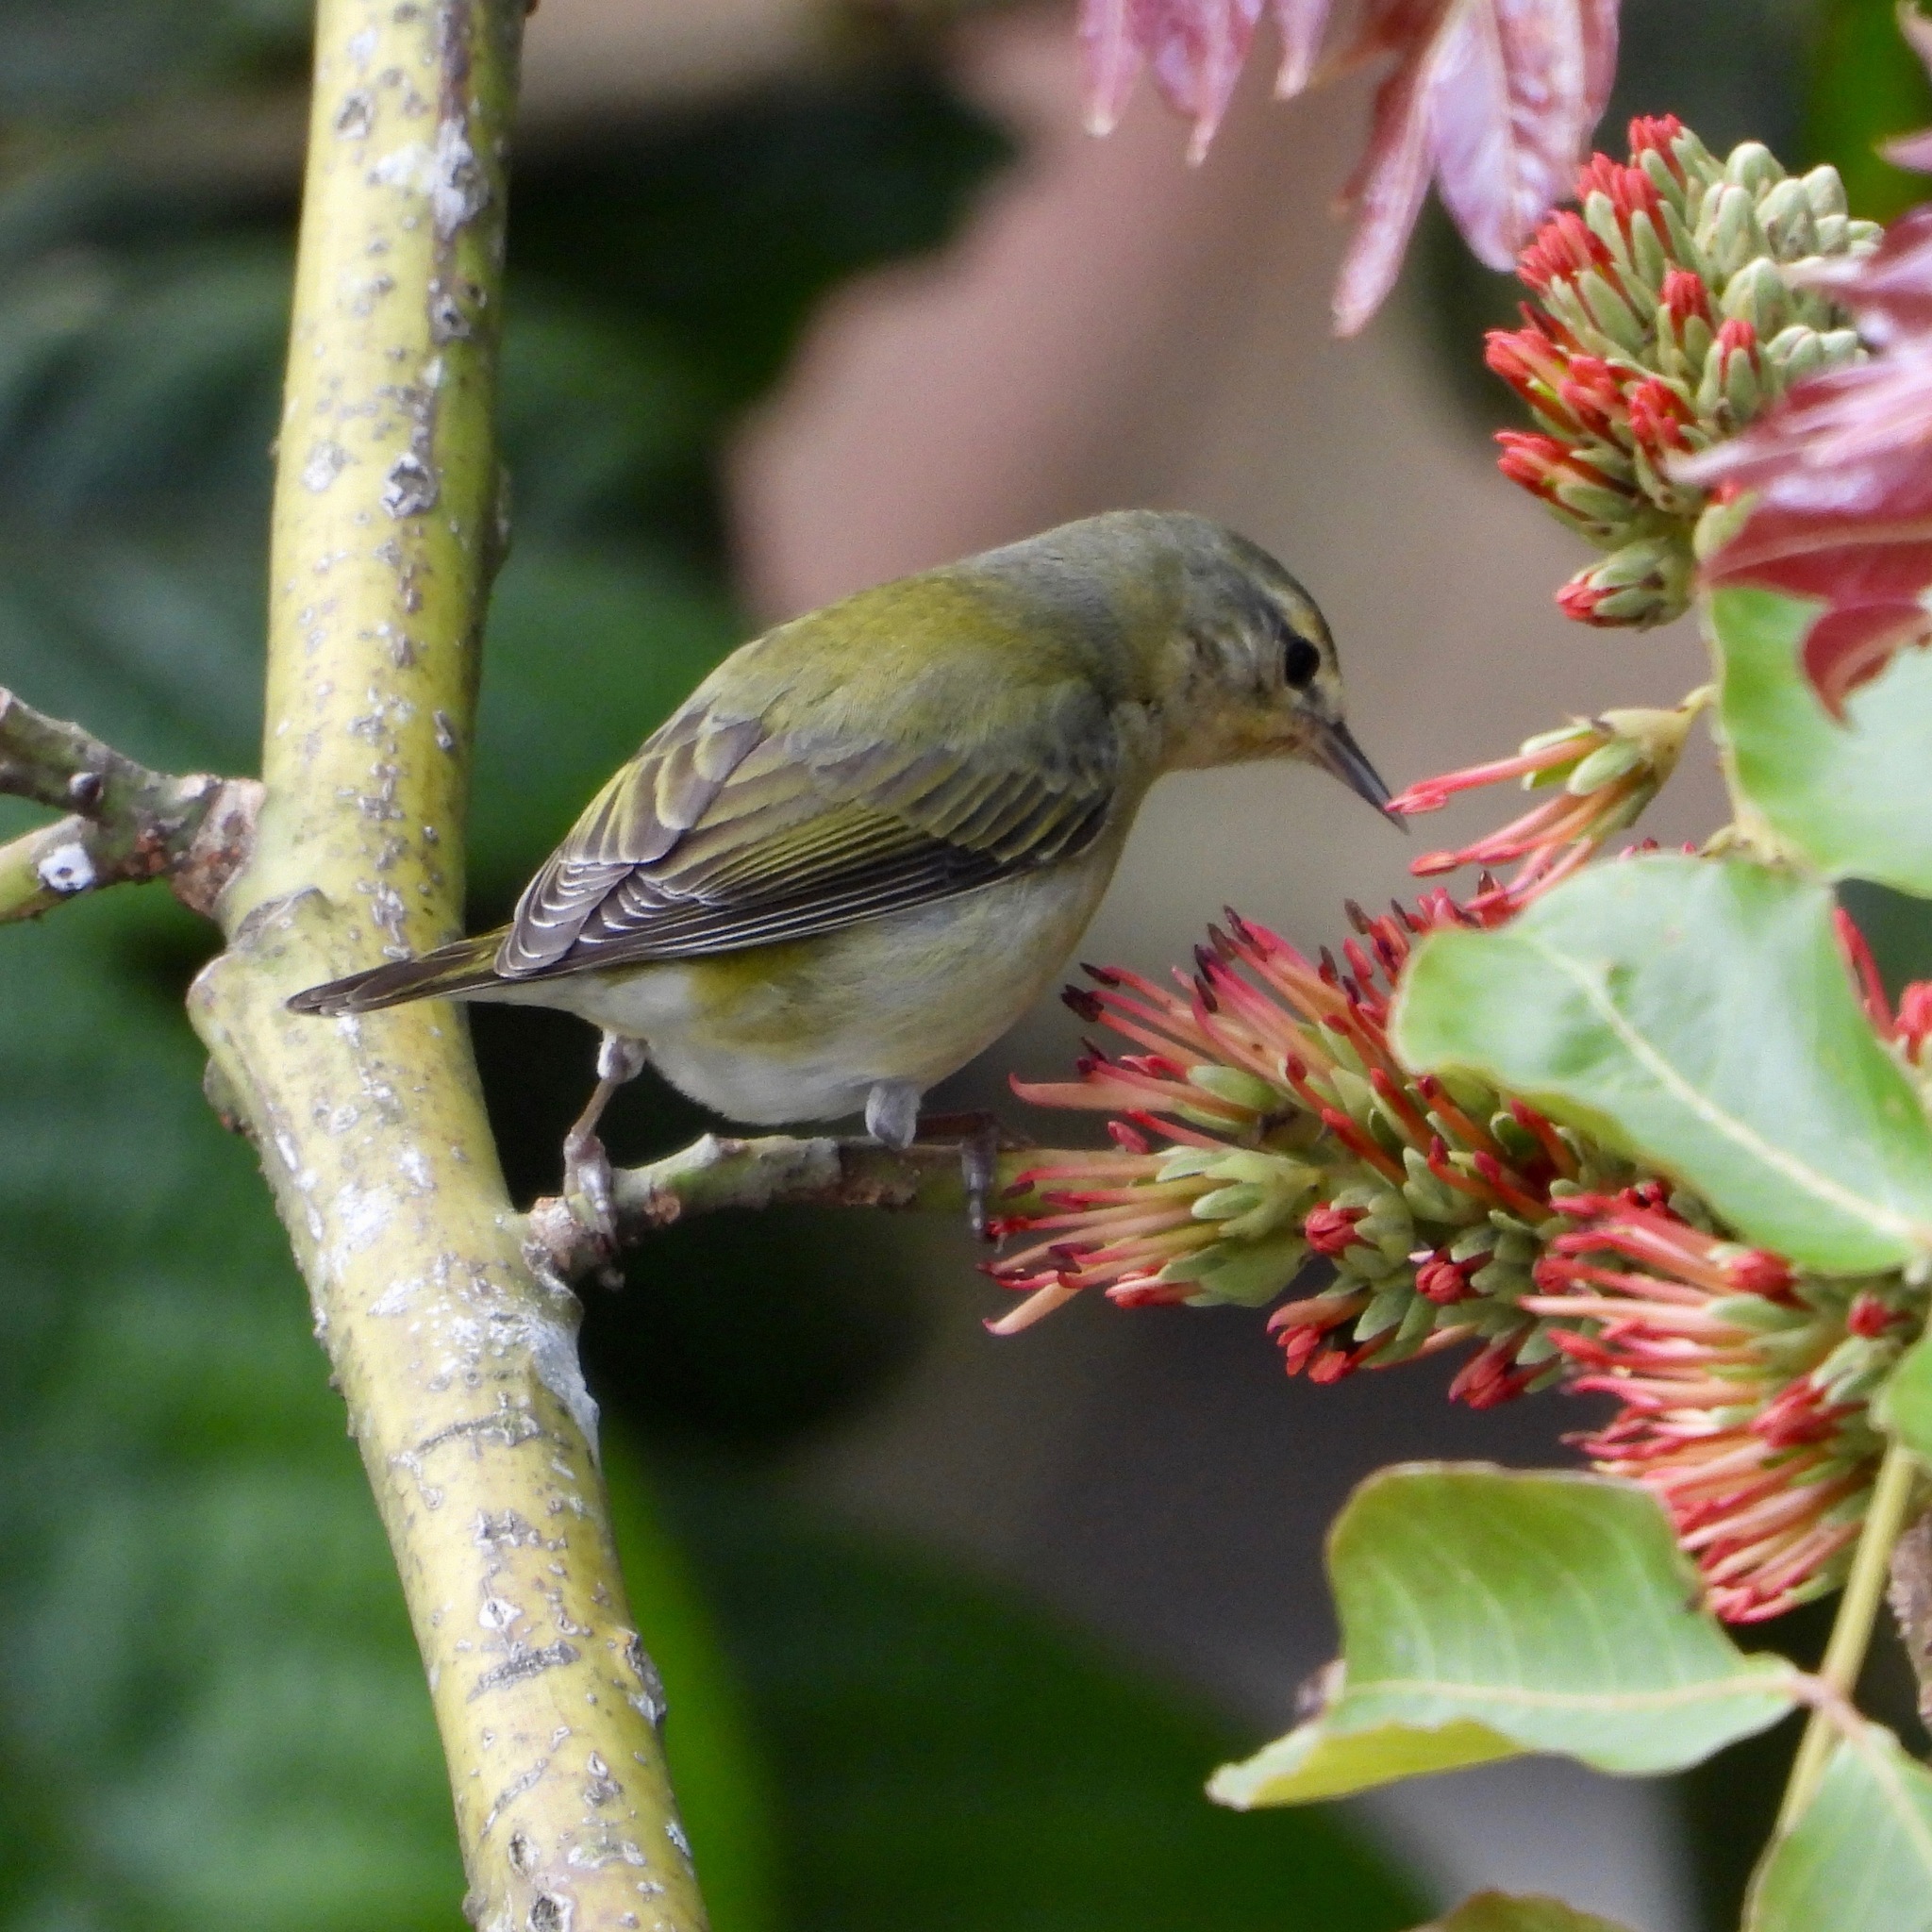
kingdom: Animalia
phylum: Chordata
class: Aves
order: Passeriformes
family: Parulidae
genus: Leiothlypis
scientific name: Leiothlypis peregrina
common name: Tennessee warbler
